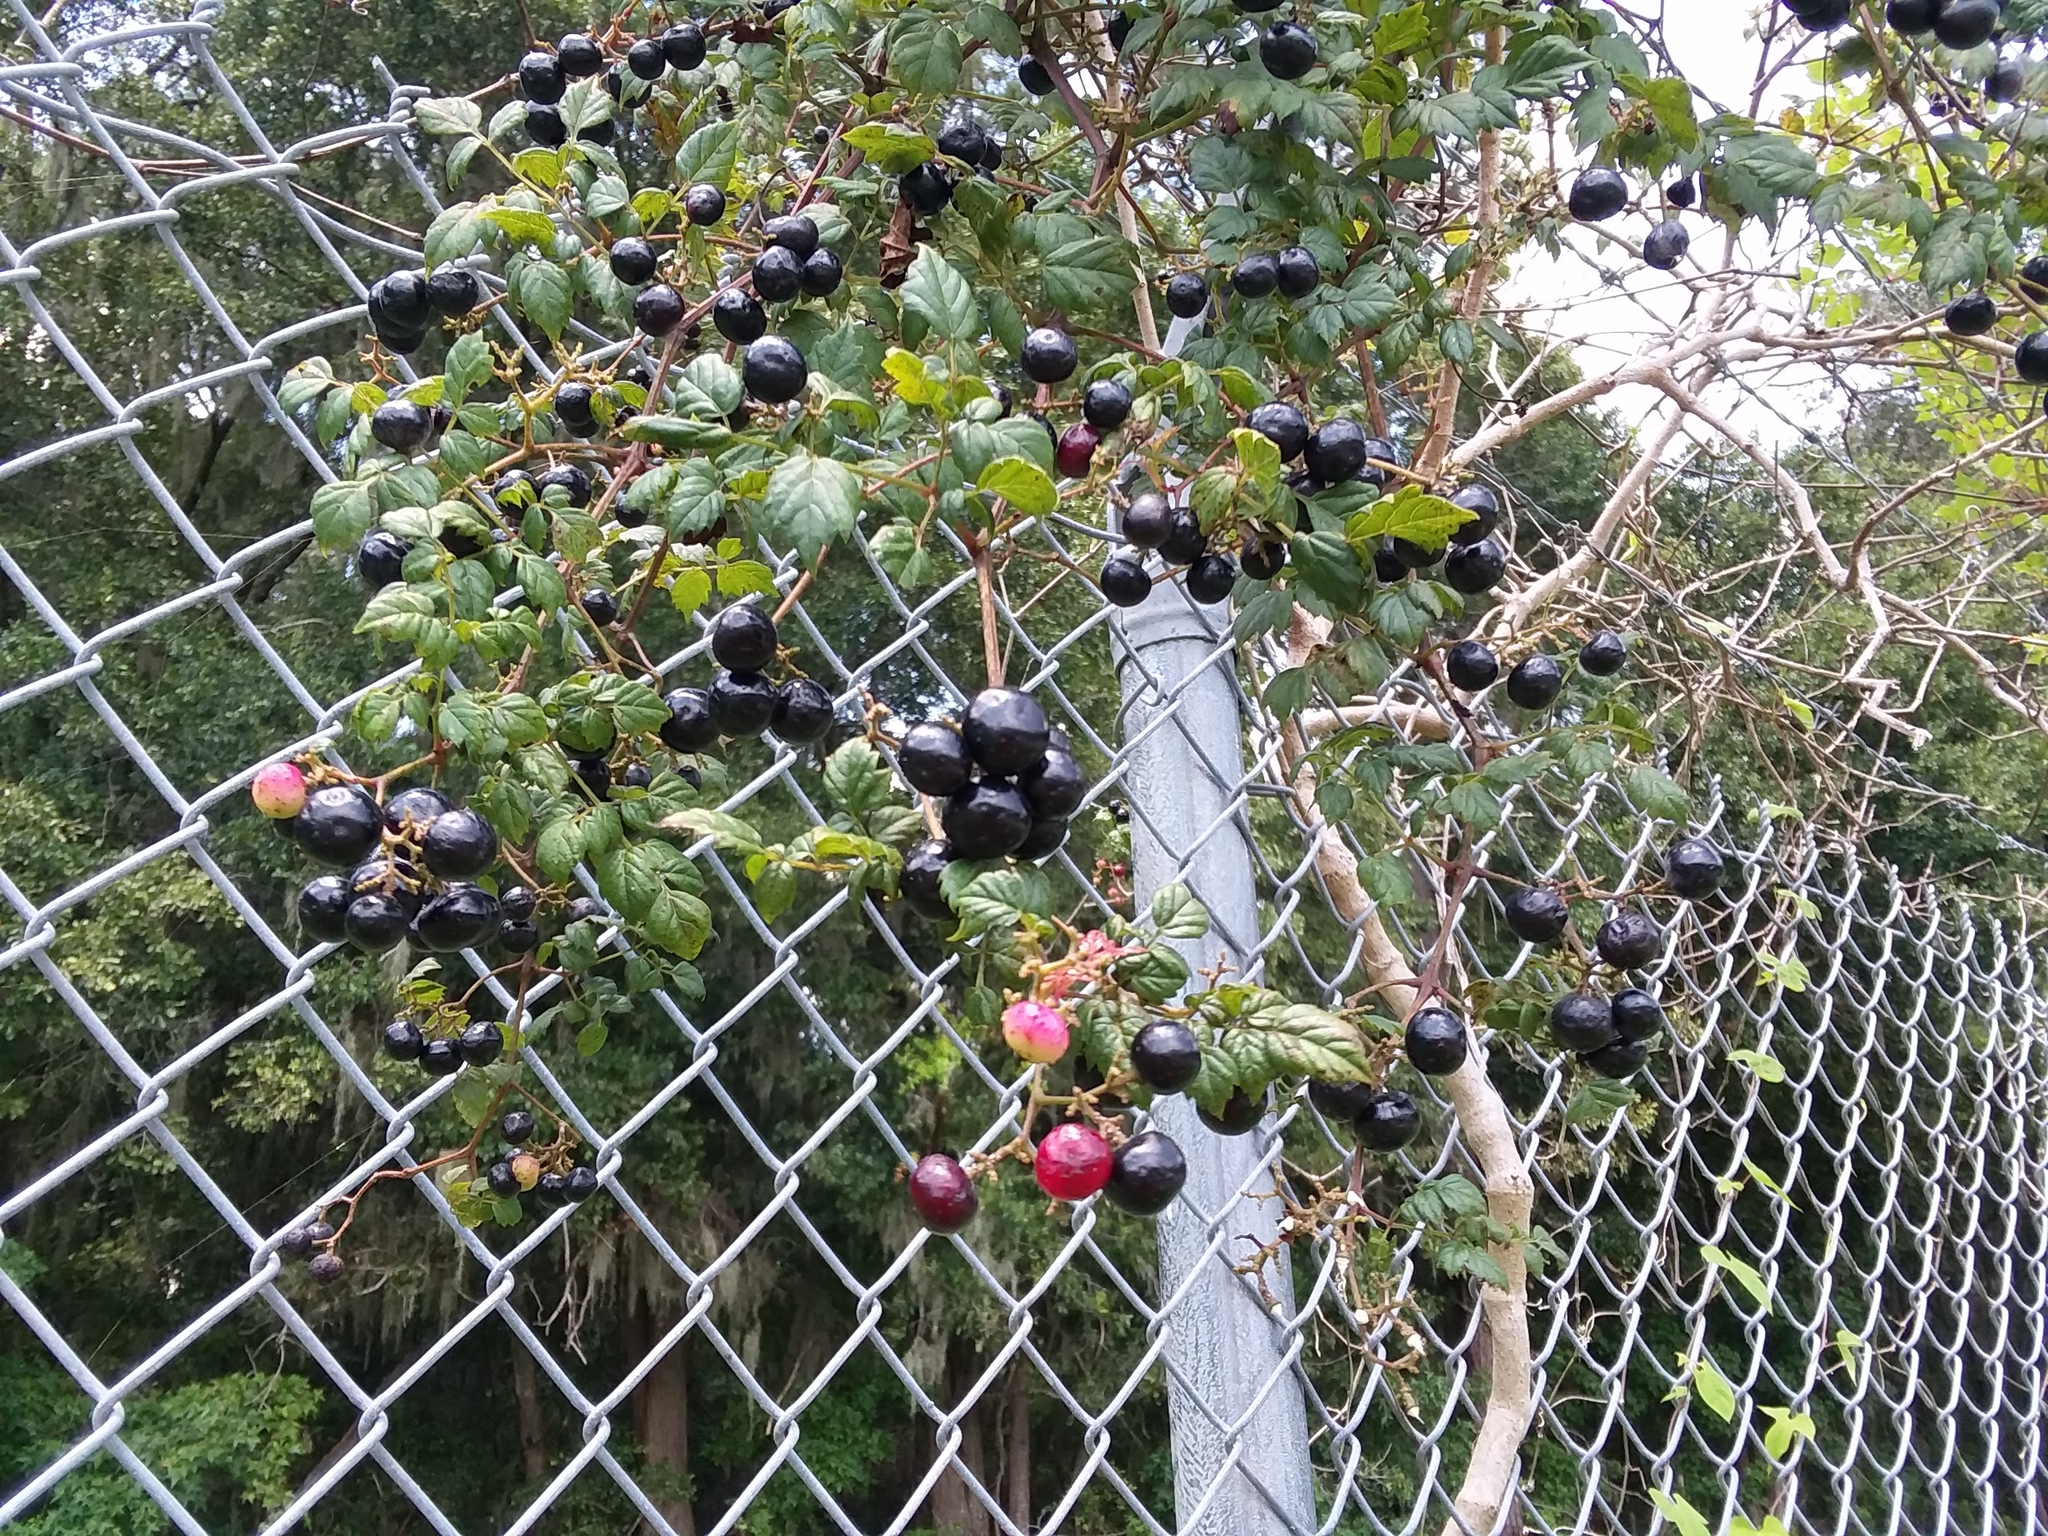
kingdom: Plantae
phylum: Tracheophyta
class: Magnoliopsida
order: Vitales
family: Vitaceae
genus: Nekemias
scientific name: Nekemias arborea
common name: Peppervine
